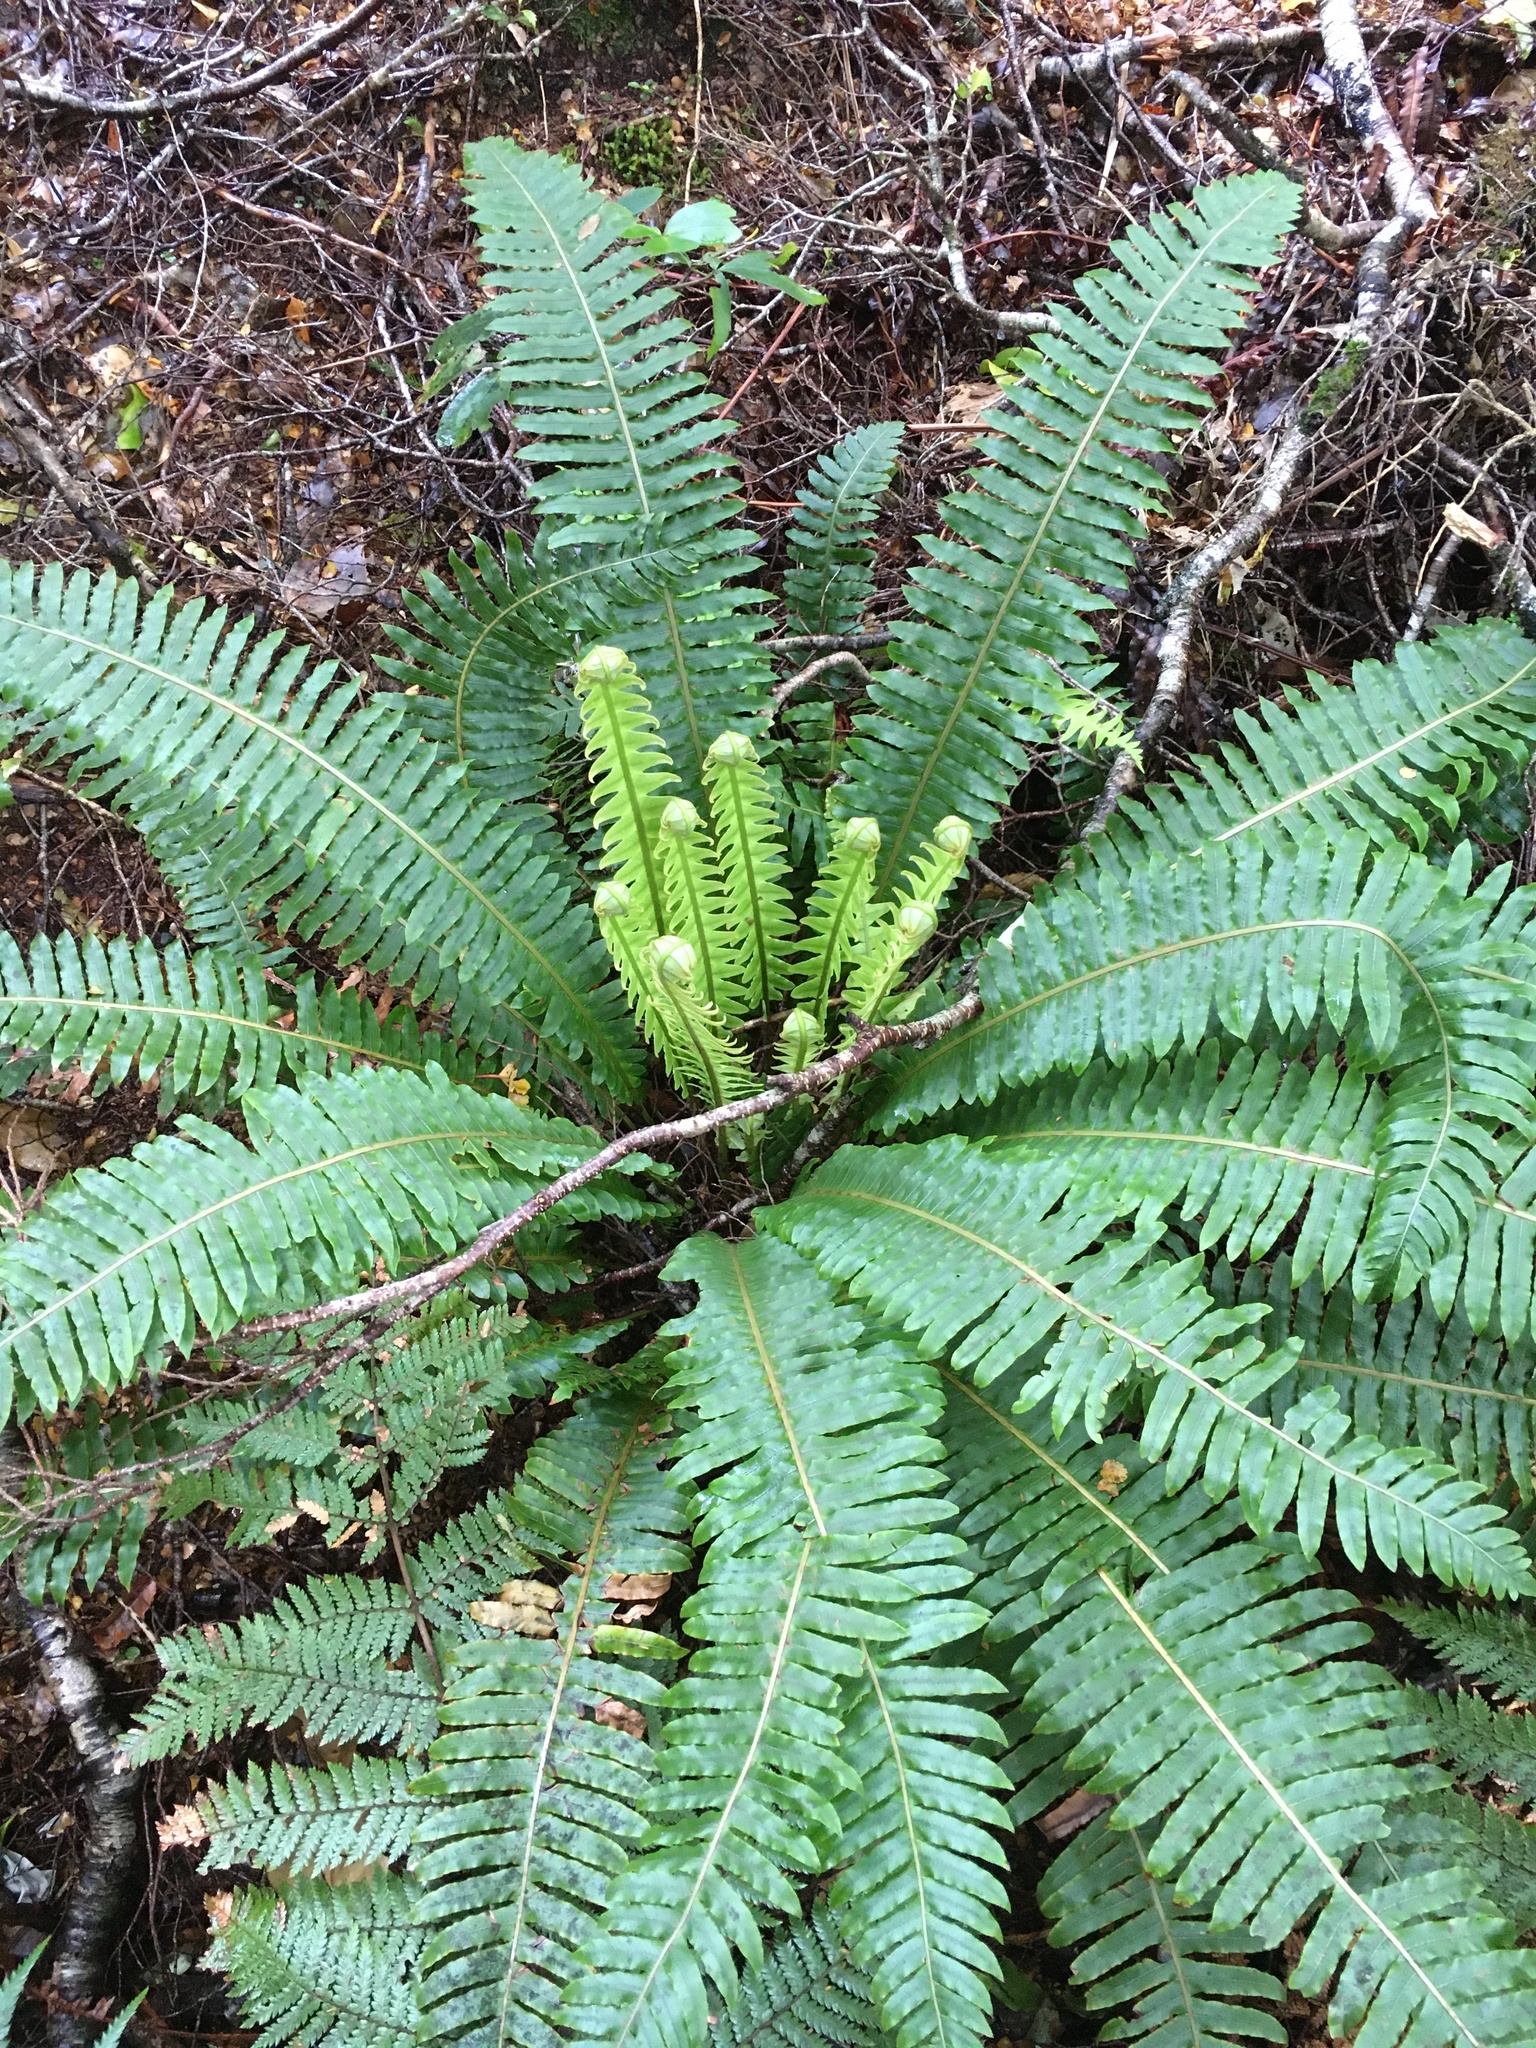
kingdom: Plantae
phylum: Tracheophyta
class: Polypodiopsida
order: Polypodiales
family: Blechnaceae
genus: Lomaria
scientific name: Lomaria discolor
